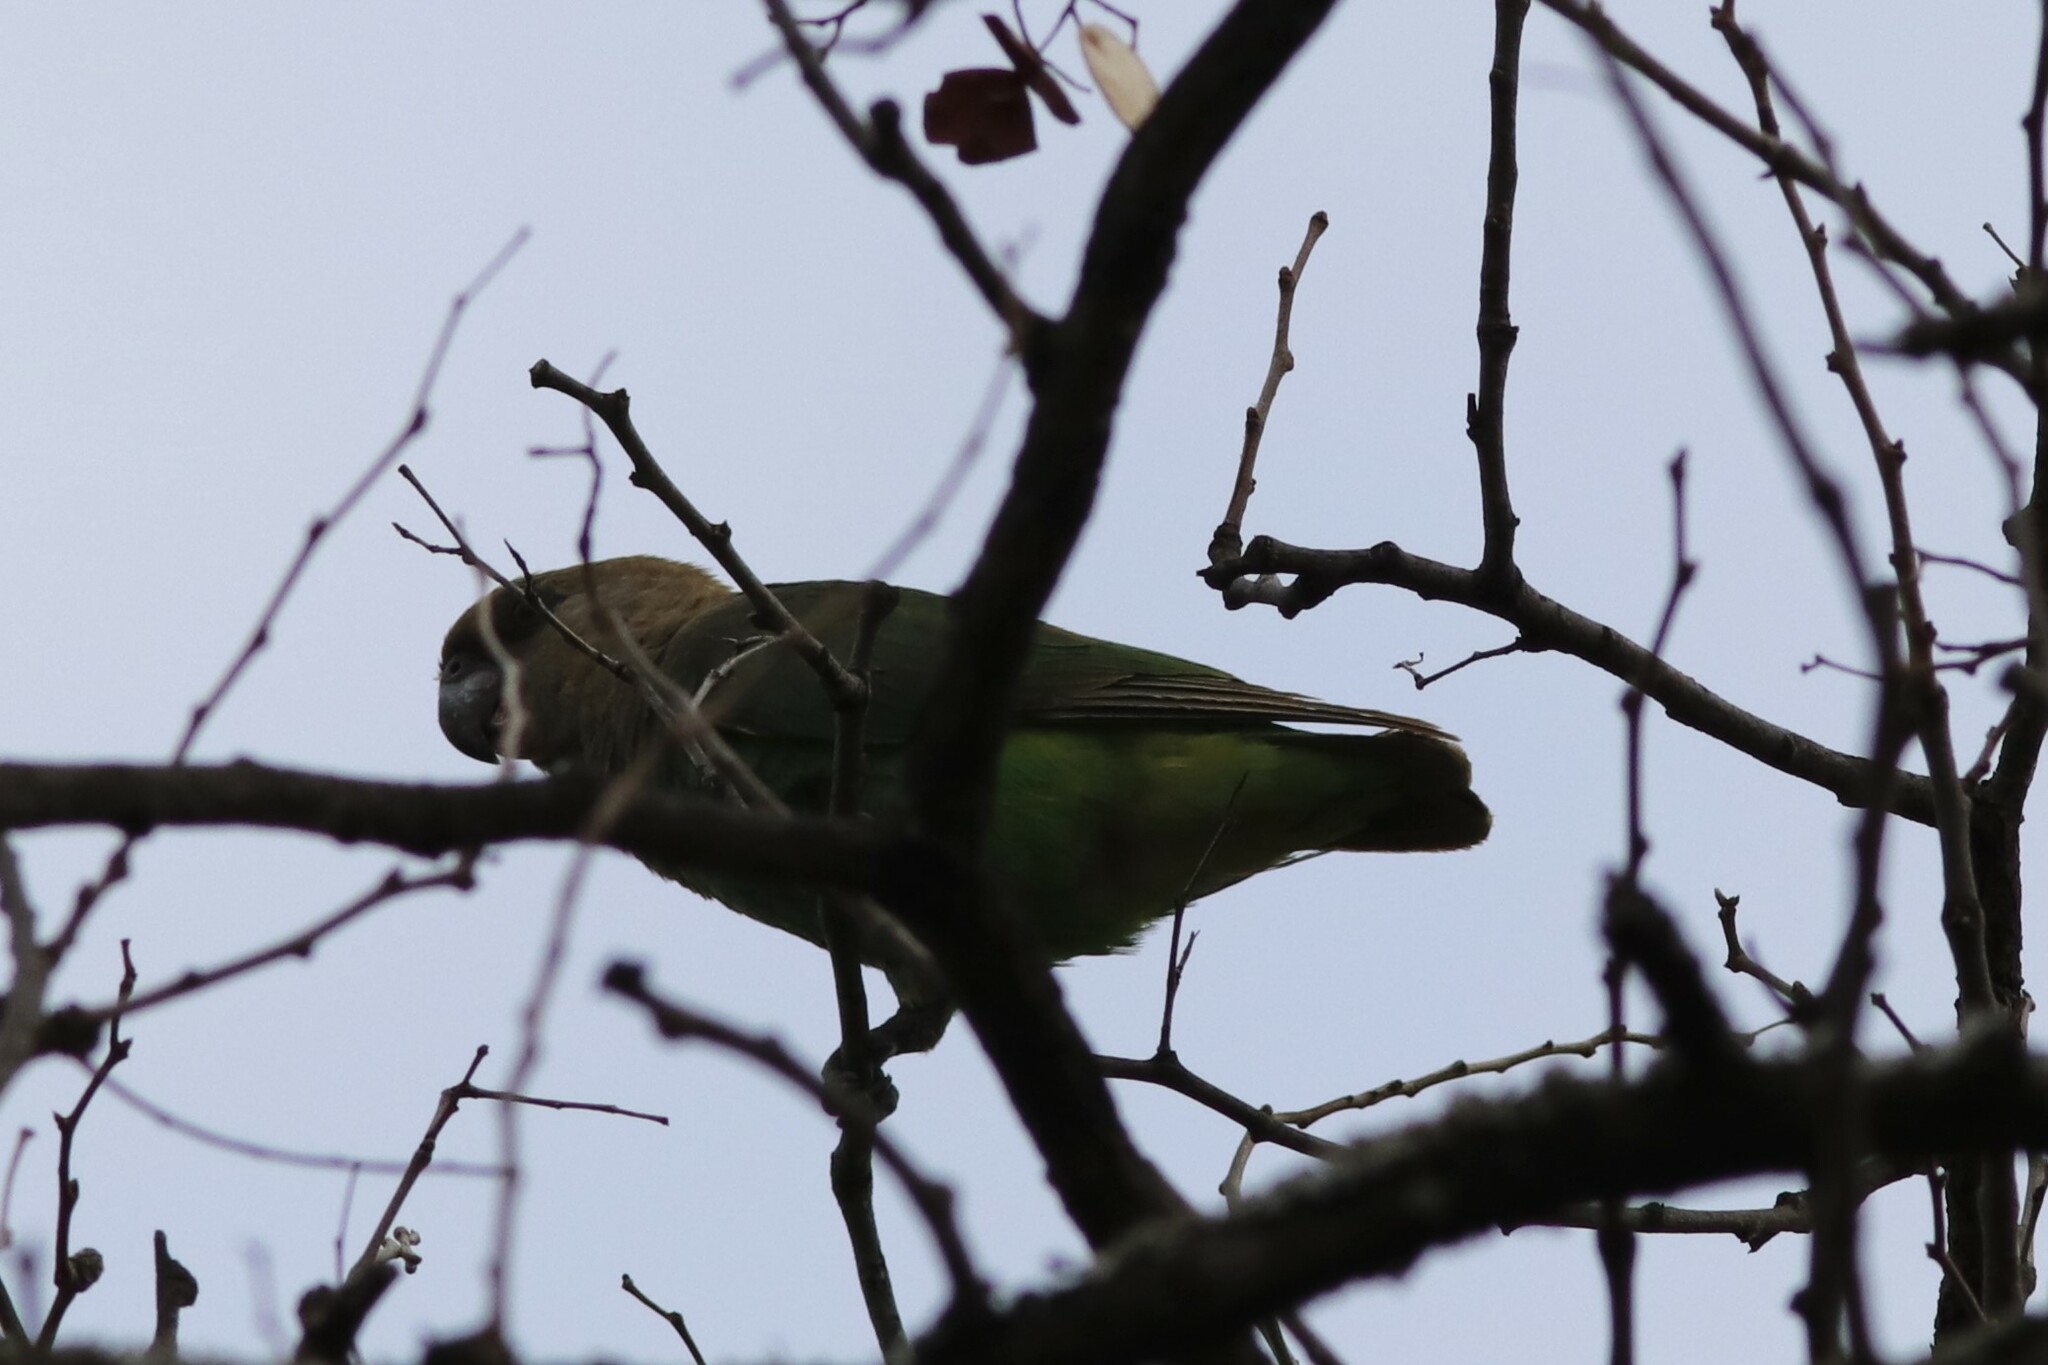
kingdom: Animalia
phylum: Chordata
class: Aves
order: Psittaciformes
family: Psittacidae
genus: Poicephalus
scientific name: Poicephalus cryptoxanthus
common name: Brown-headed parrot
